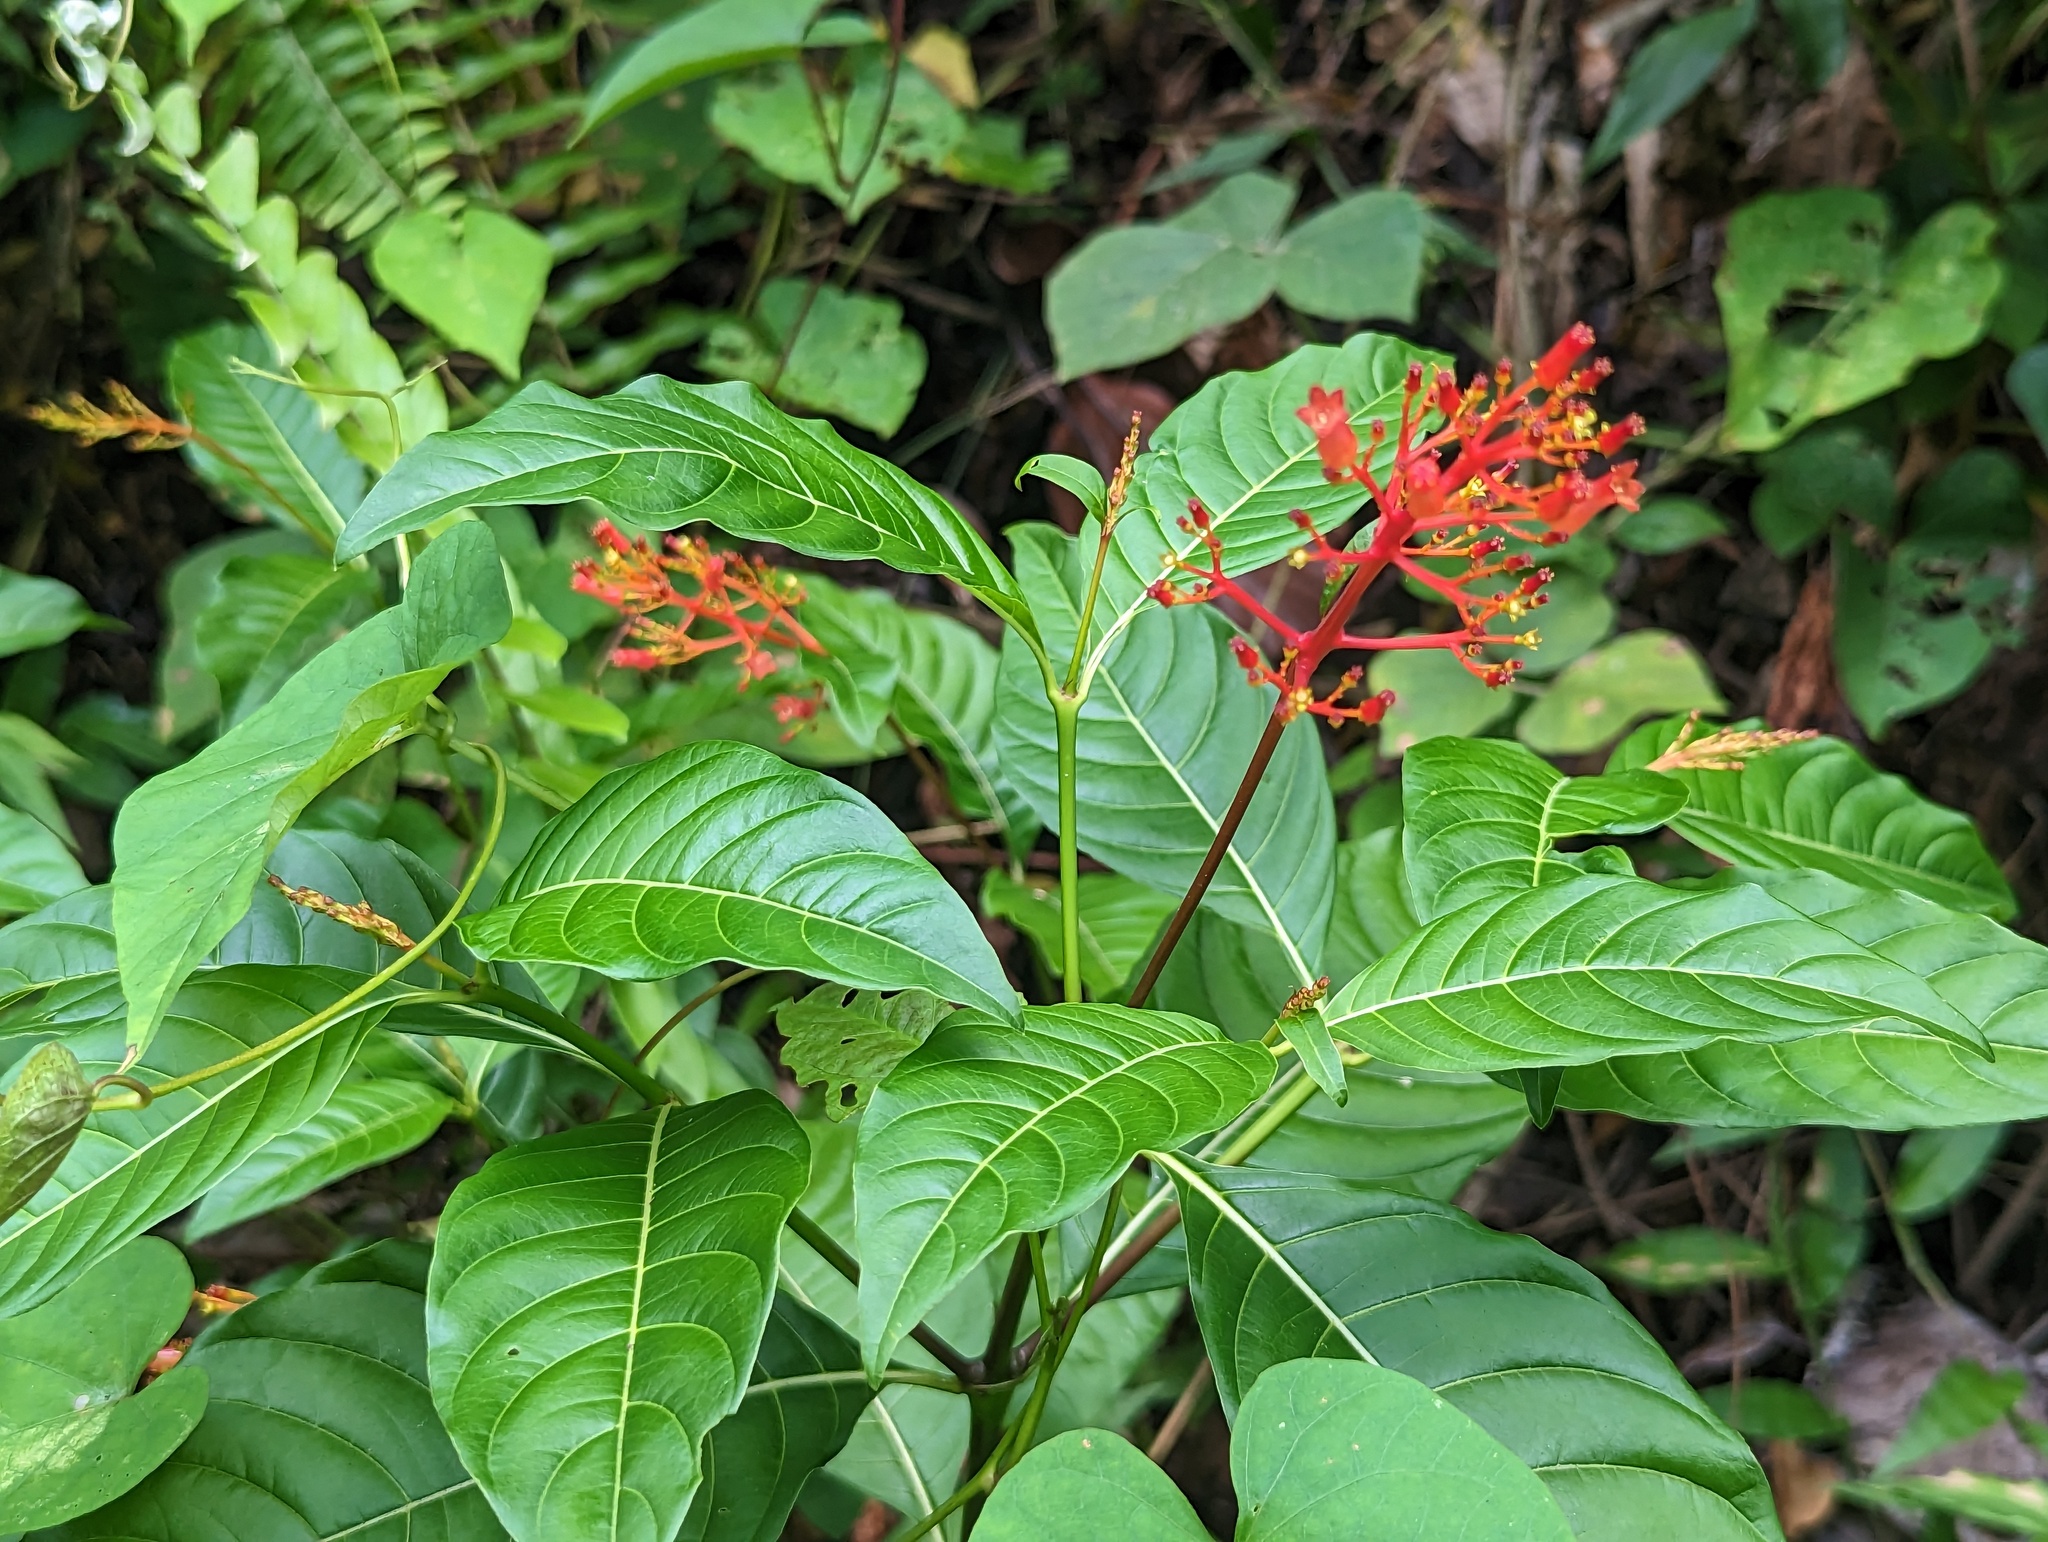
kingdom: Plantae
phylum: Tracheophyta
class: Magnoliopsida
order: Gentianales
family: Rubiaceae
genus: Palicourea
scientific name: Palicourea crocea
